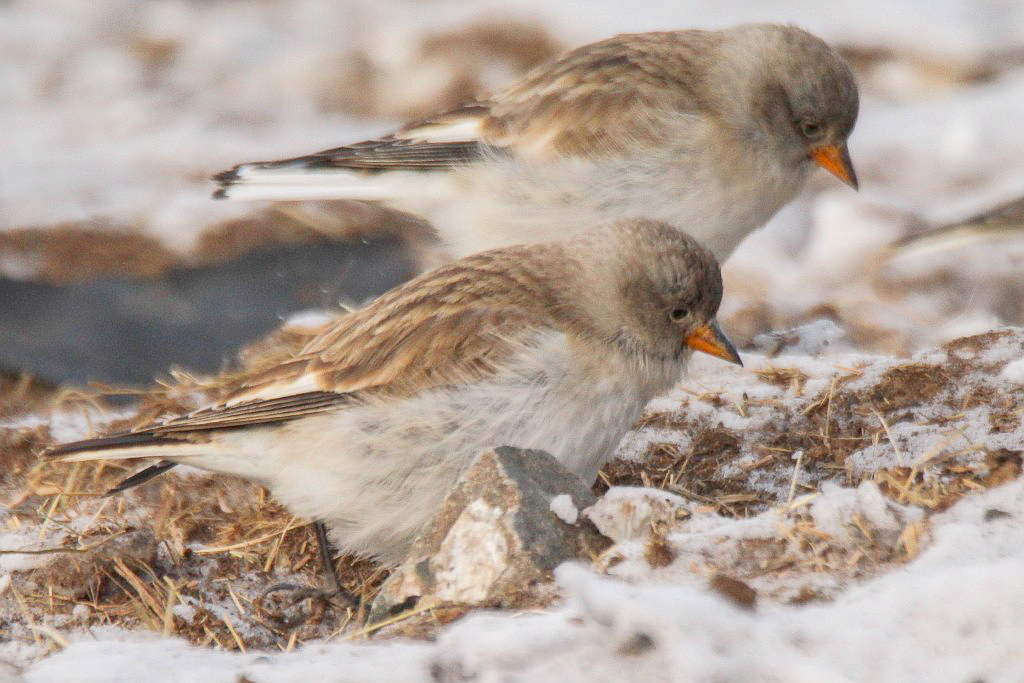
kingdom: Animalia
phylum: Chordata
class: Aves
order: Passeriformes
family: Passeridae
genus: Montifringilla
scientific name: Montifringilla nivalis
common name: White-winged snowfinch
